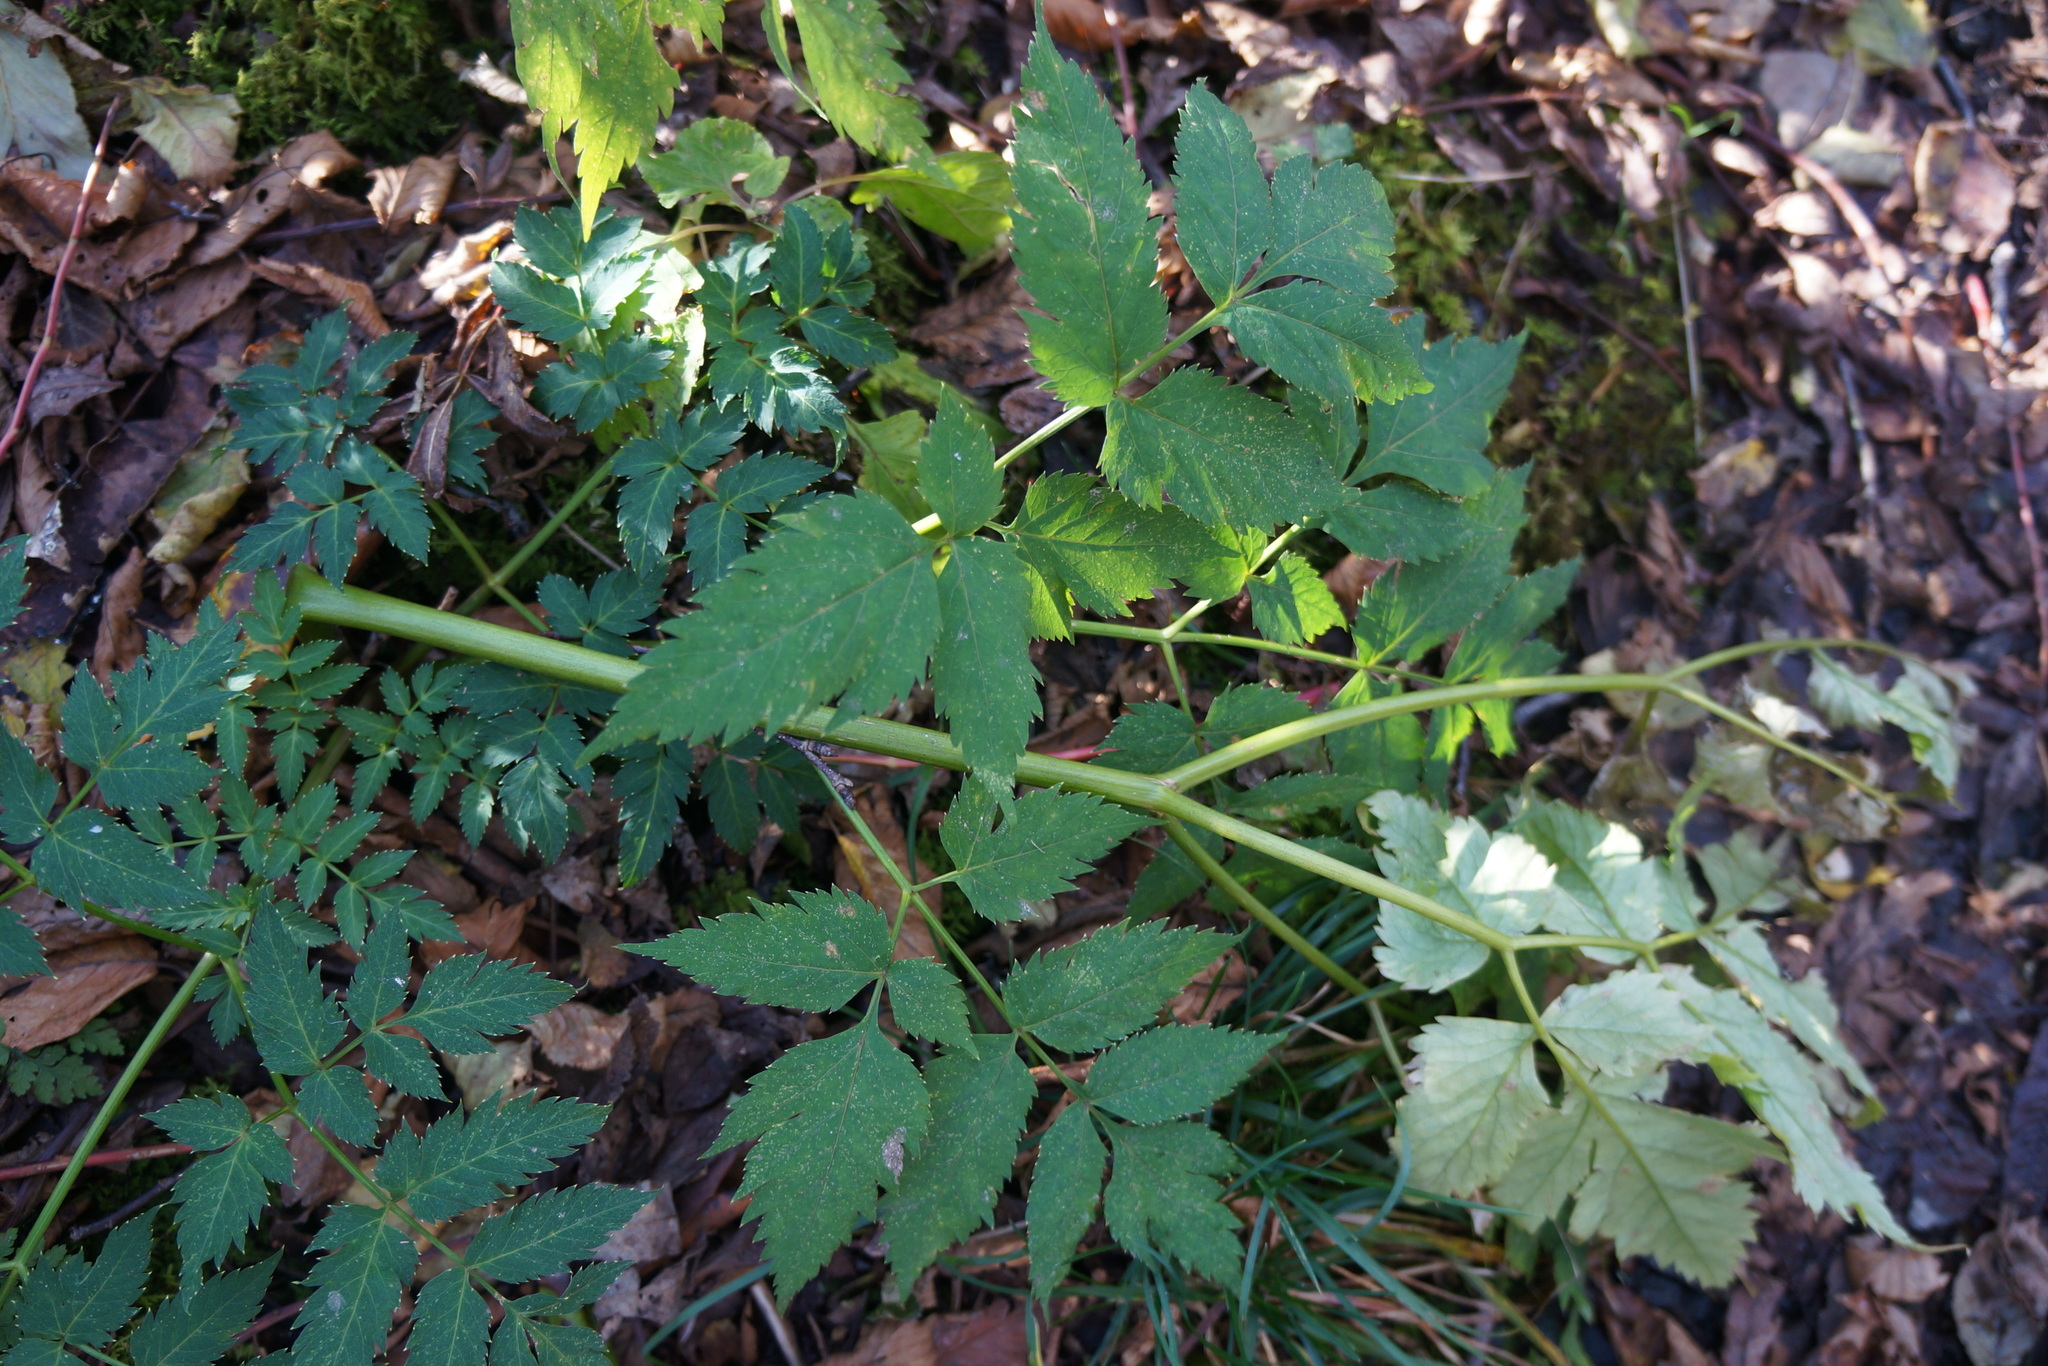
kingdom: Plantae
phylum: Tracheophyta
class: Magnoliopsida
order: Apiales
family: Apiaceae
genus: Angelica
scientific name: Angelica triquinata
